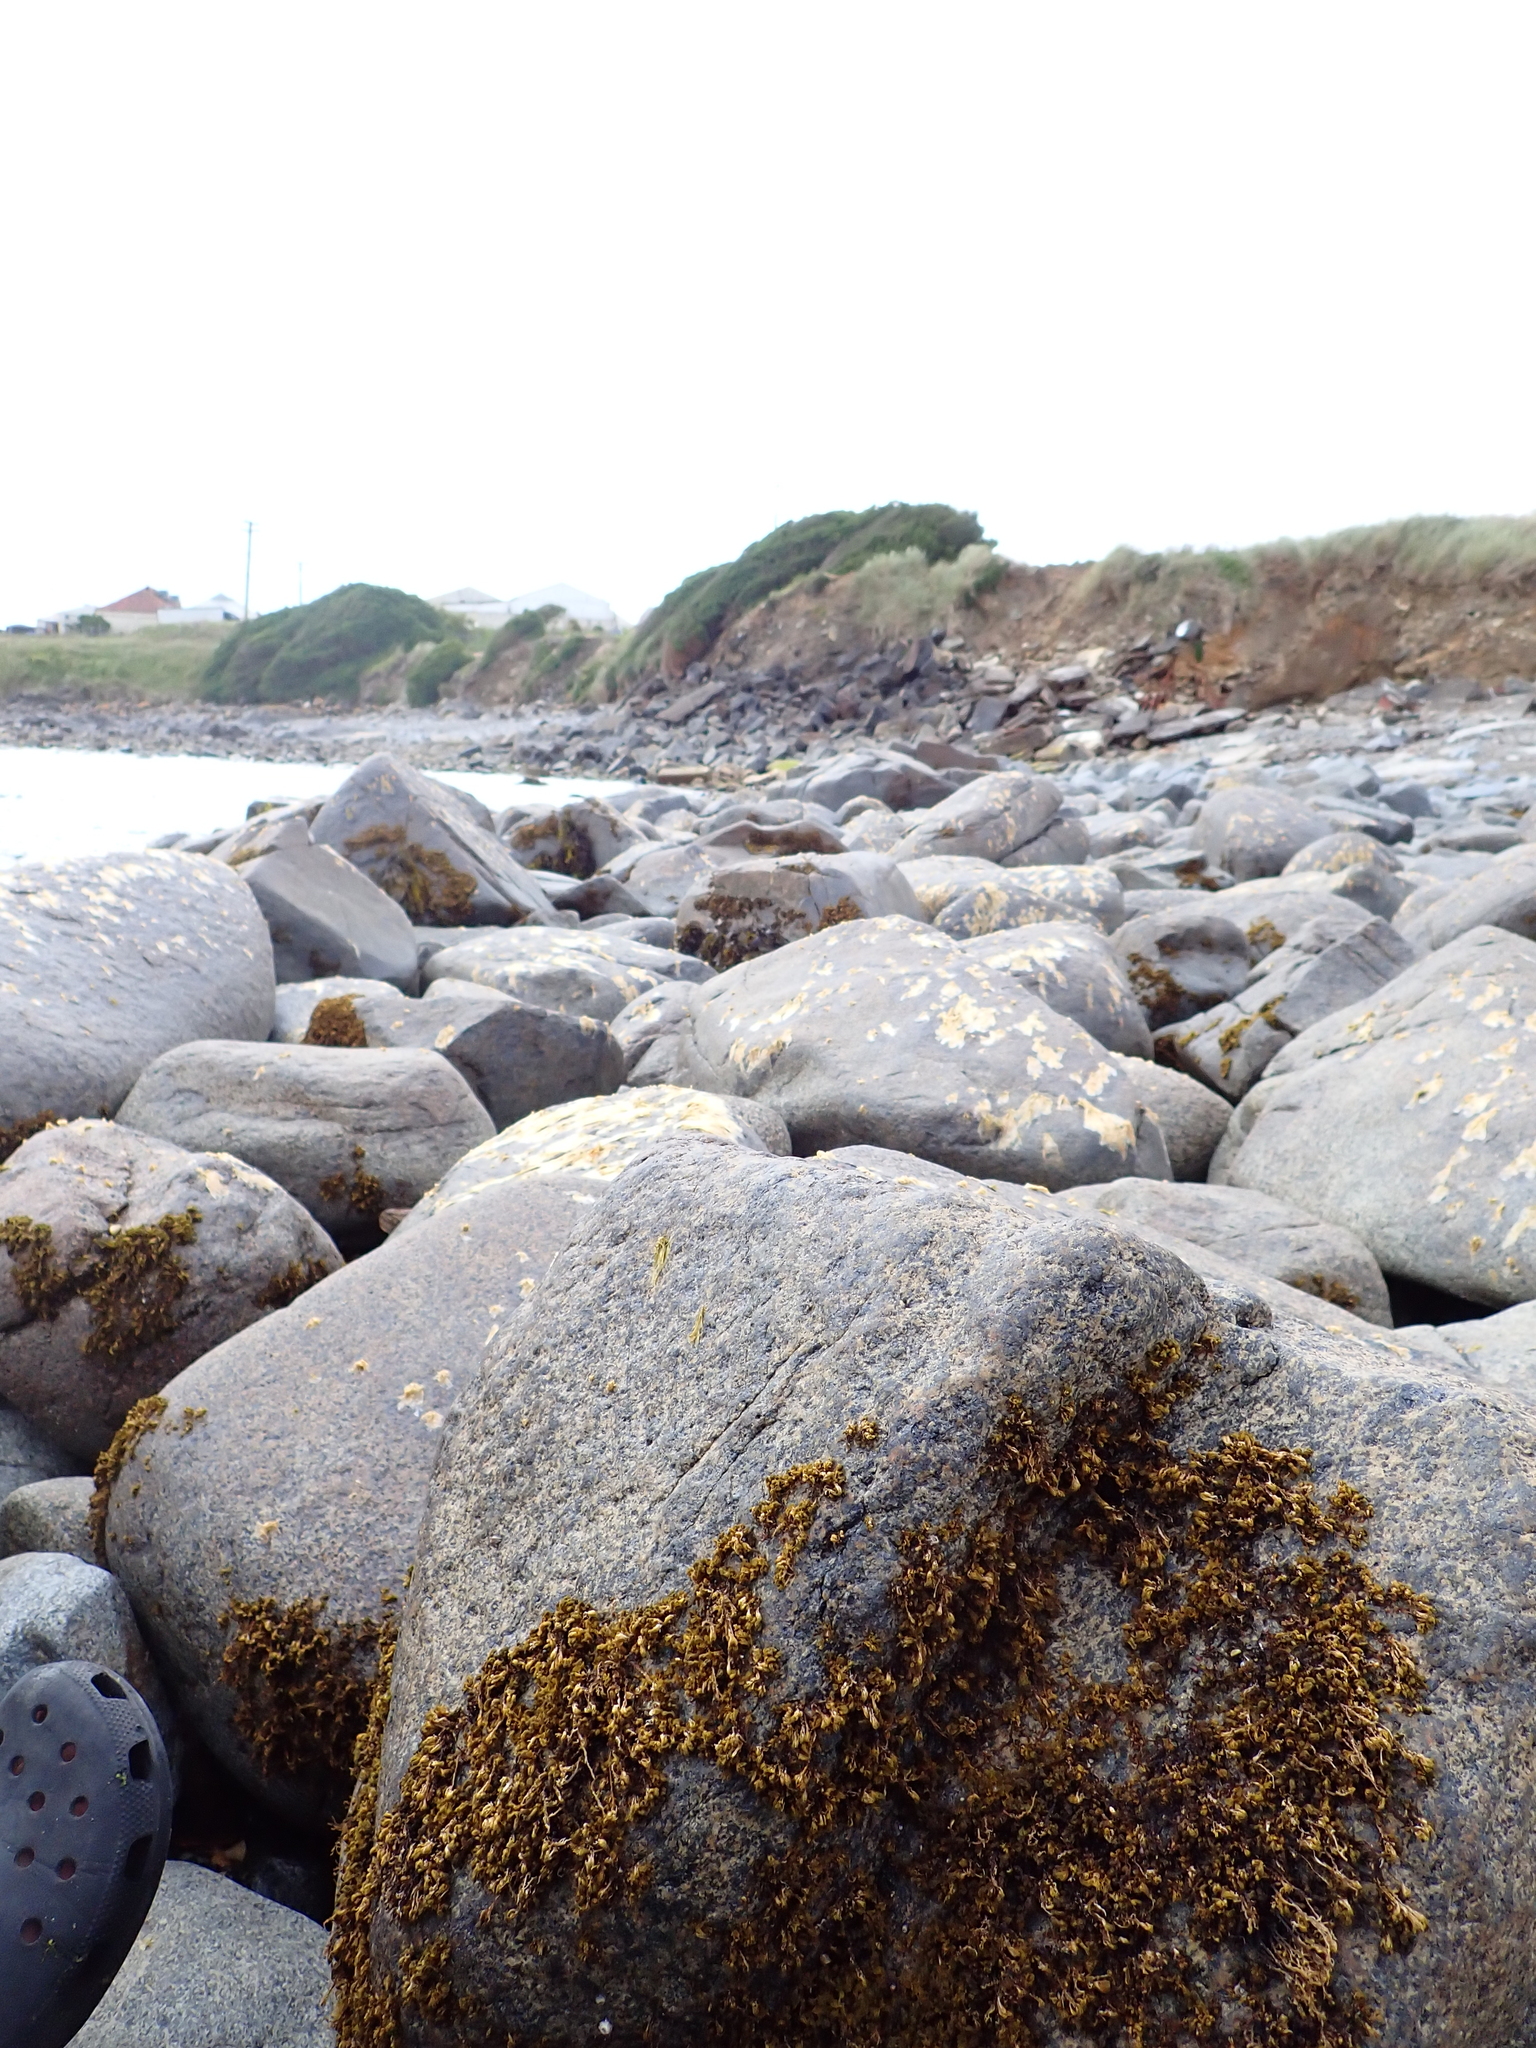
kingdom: Animalia
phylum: Mollusca
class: Gastropoda
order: Littorinimorpha
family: Littorinidae
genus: Risellopsis
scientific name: Risellopsis varia
